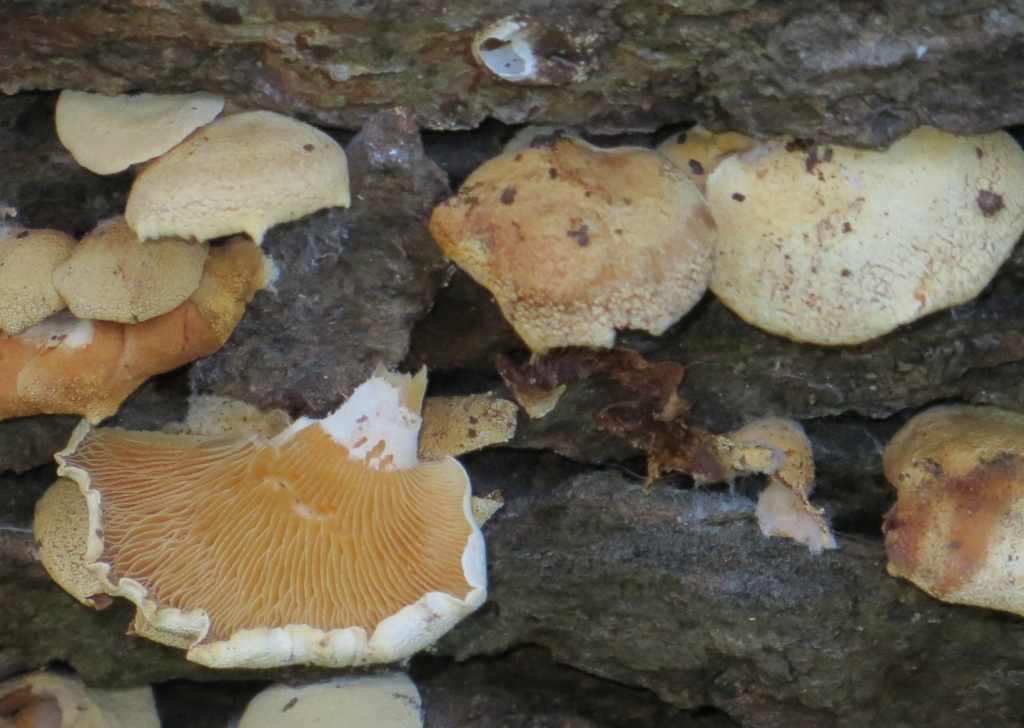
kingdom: Fungi
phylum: Basidiomycota
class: Agaricomycetes
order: Agaricales
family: Mycenaceae
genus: Panellus
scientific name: Panellus stipticus
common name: Bitter oysterling
